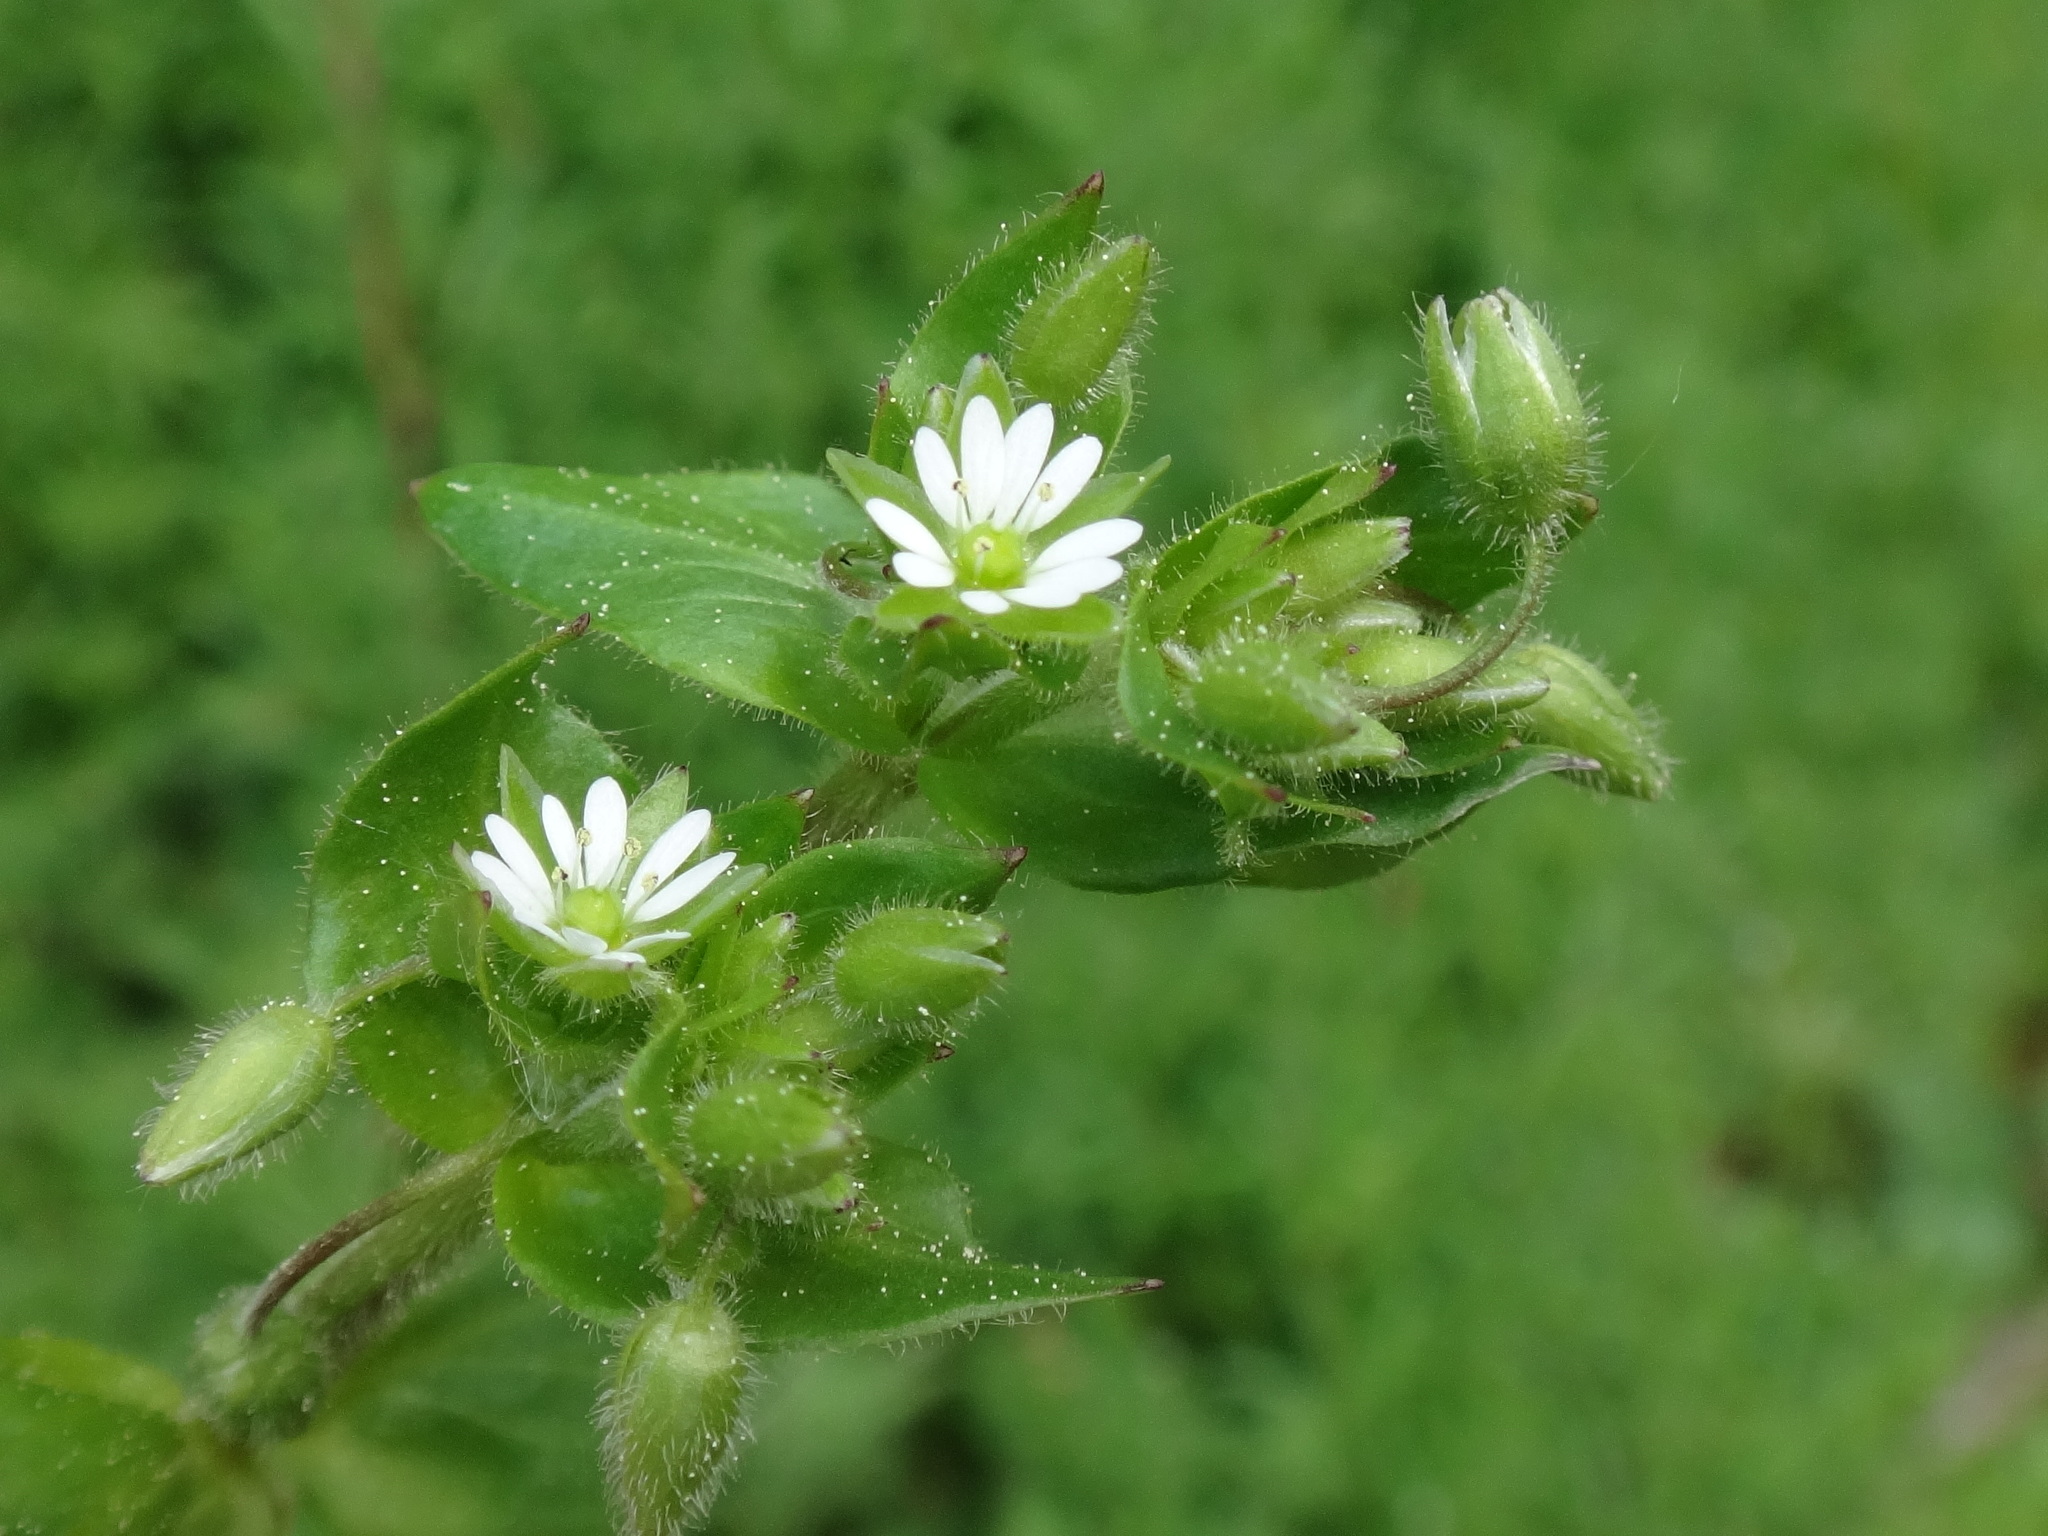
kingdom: Plantae
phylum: Tracheophyta
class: Magnoliopsida
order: Caryophyllales
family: Caryophyllaceae
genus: Stellaria
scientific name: Stellaria
